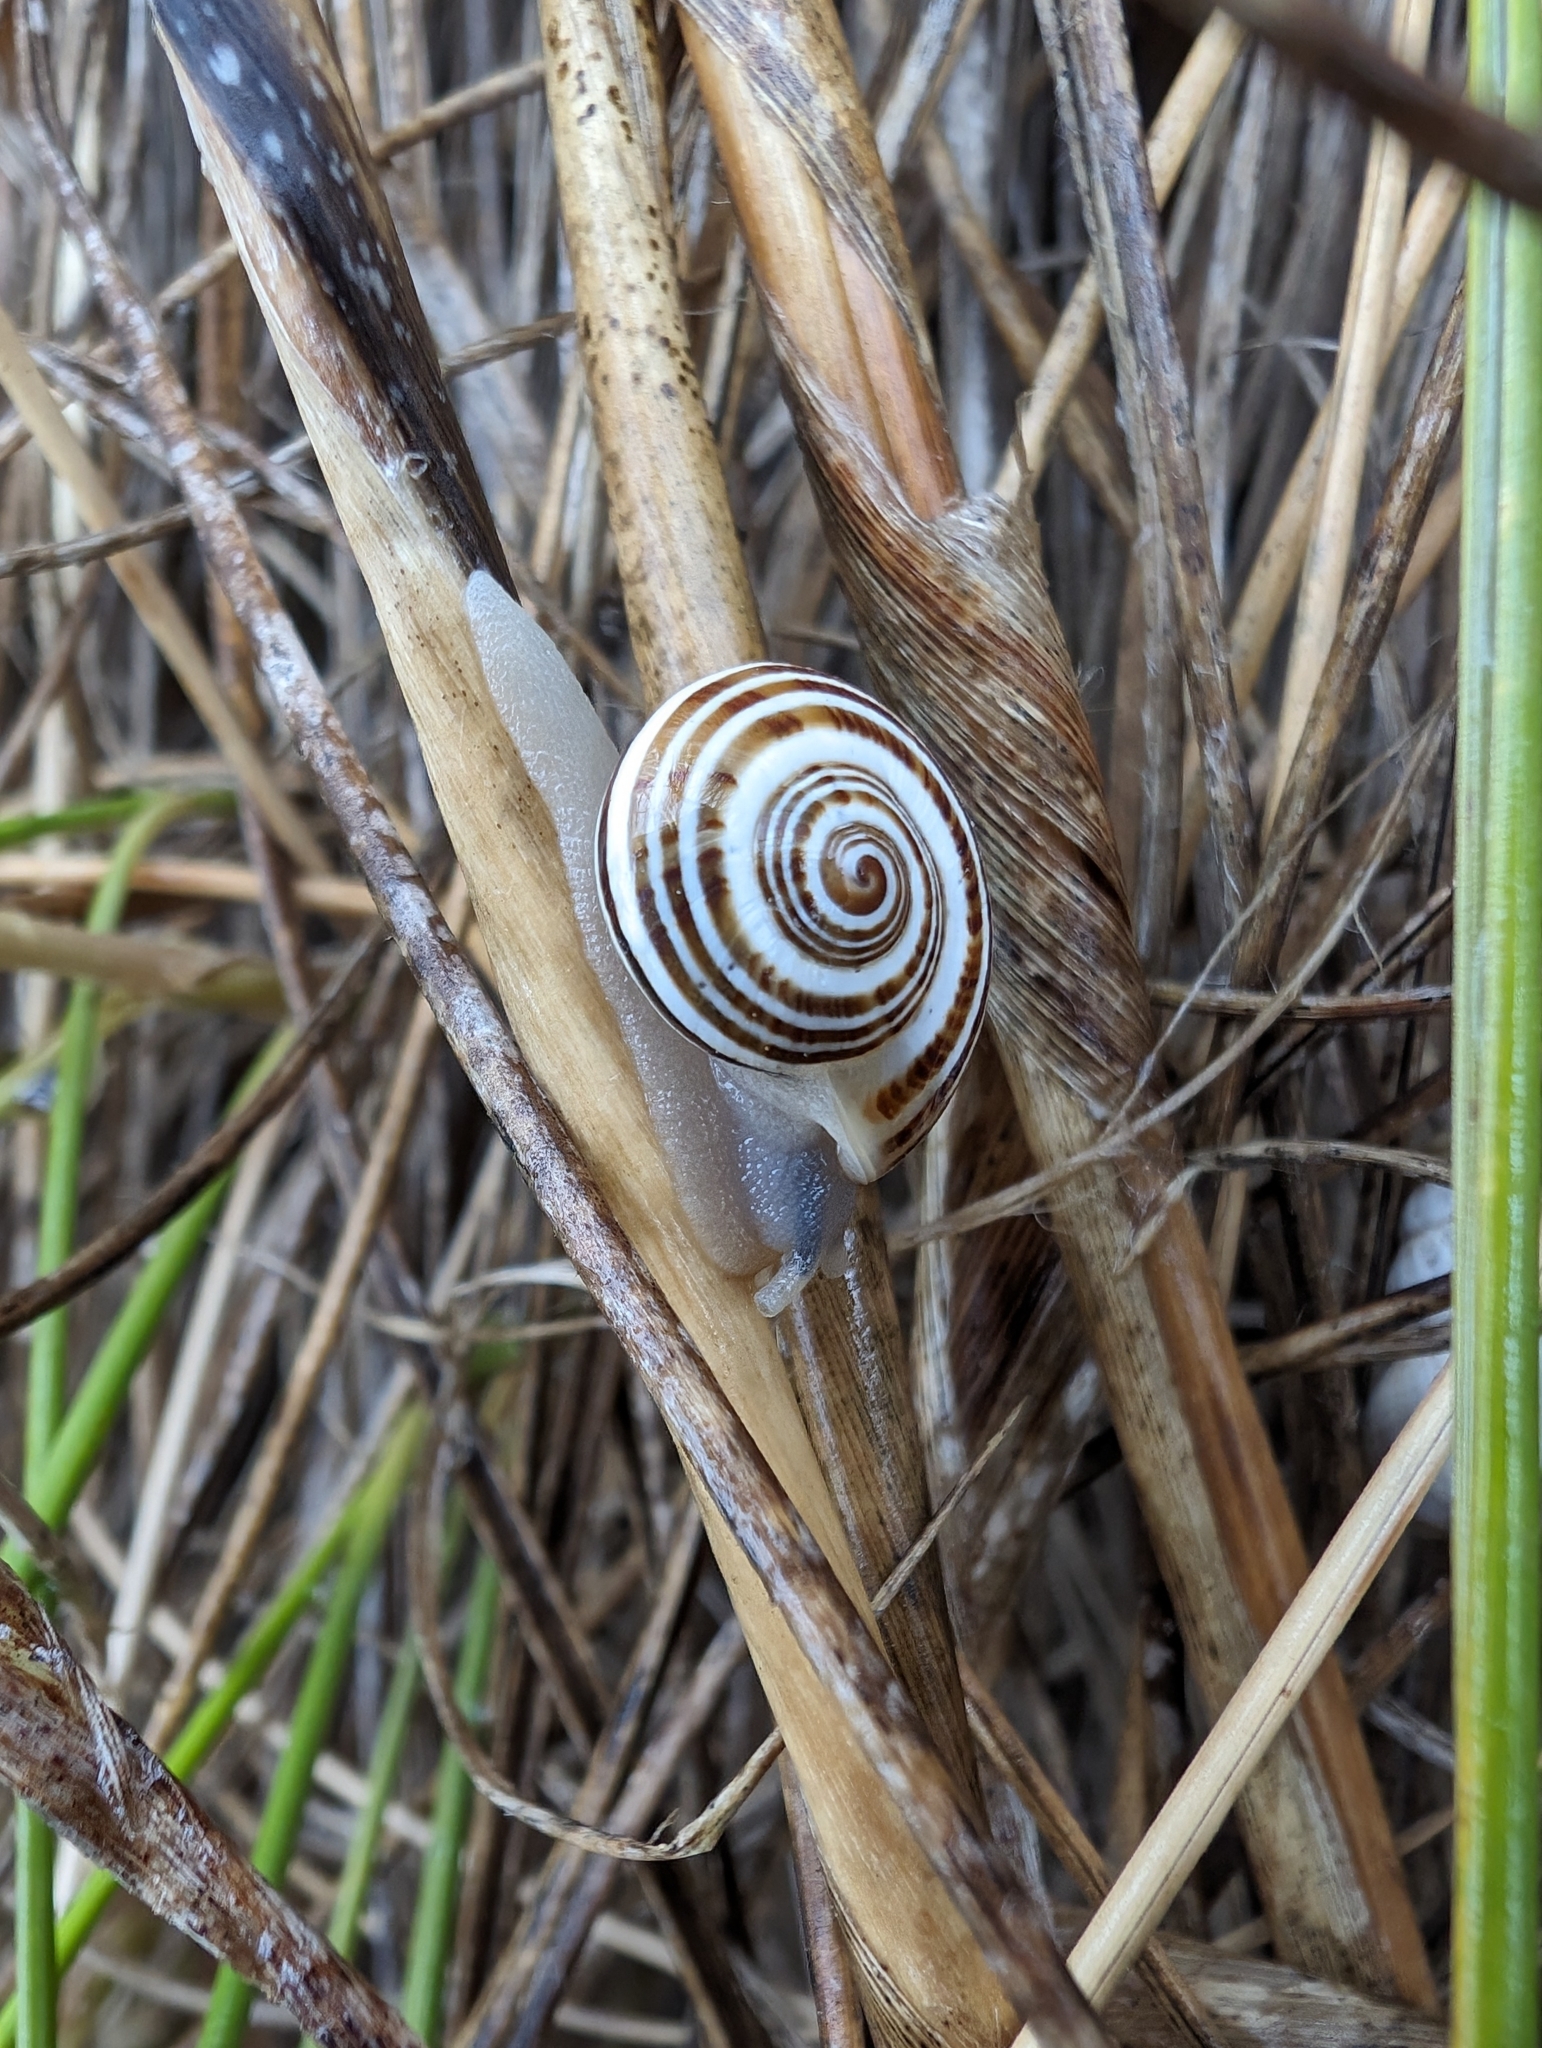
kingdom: Animalia
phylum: Mollusca
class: Gastropoda
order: Stylommatophora
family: Helicidae
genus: Pseudotachea
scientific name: Pseudotachea splendida
